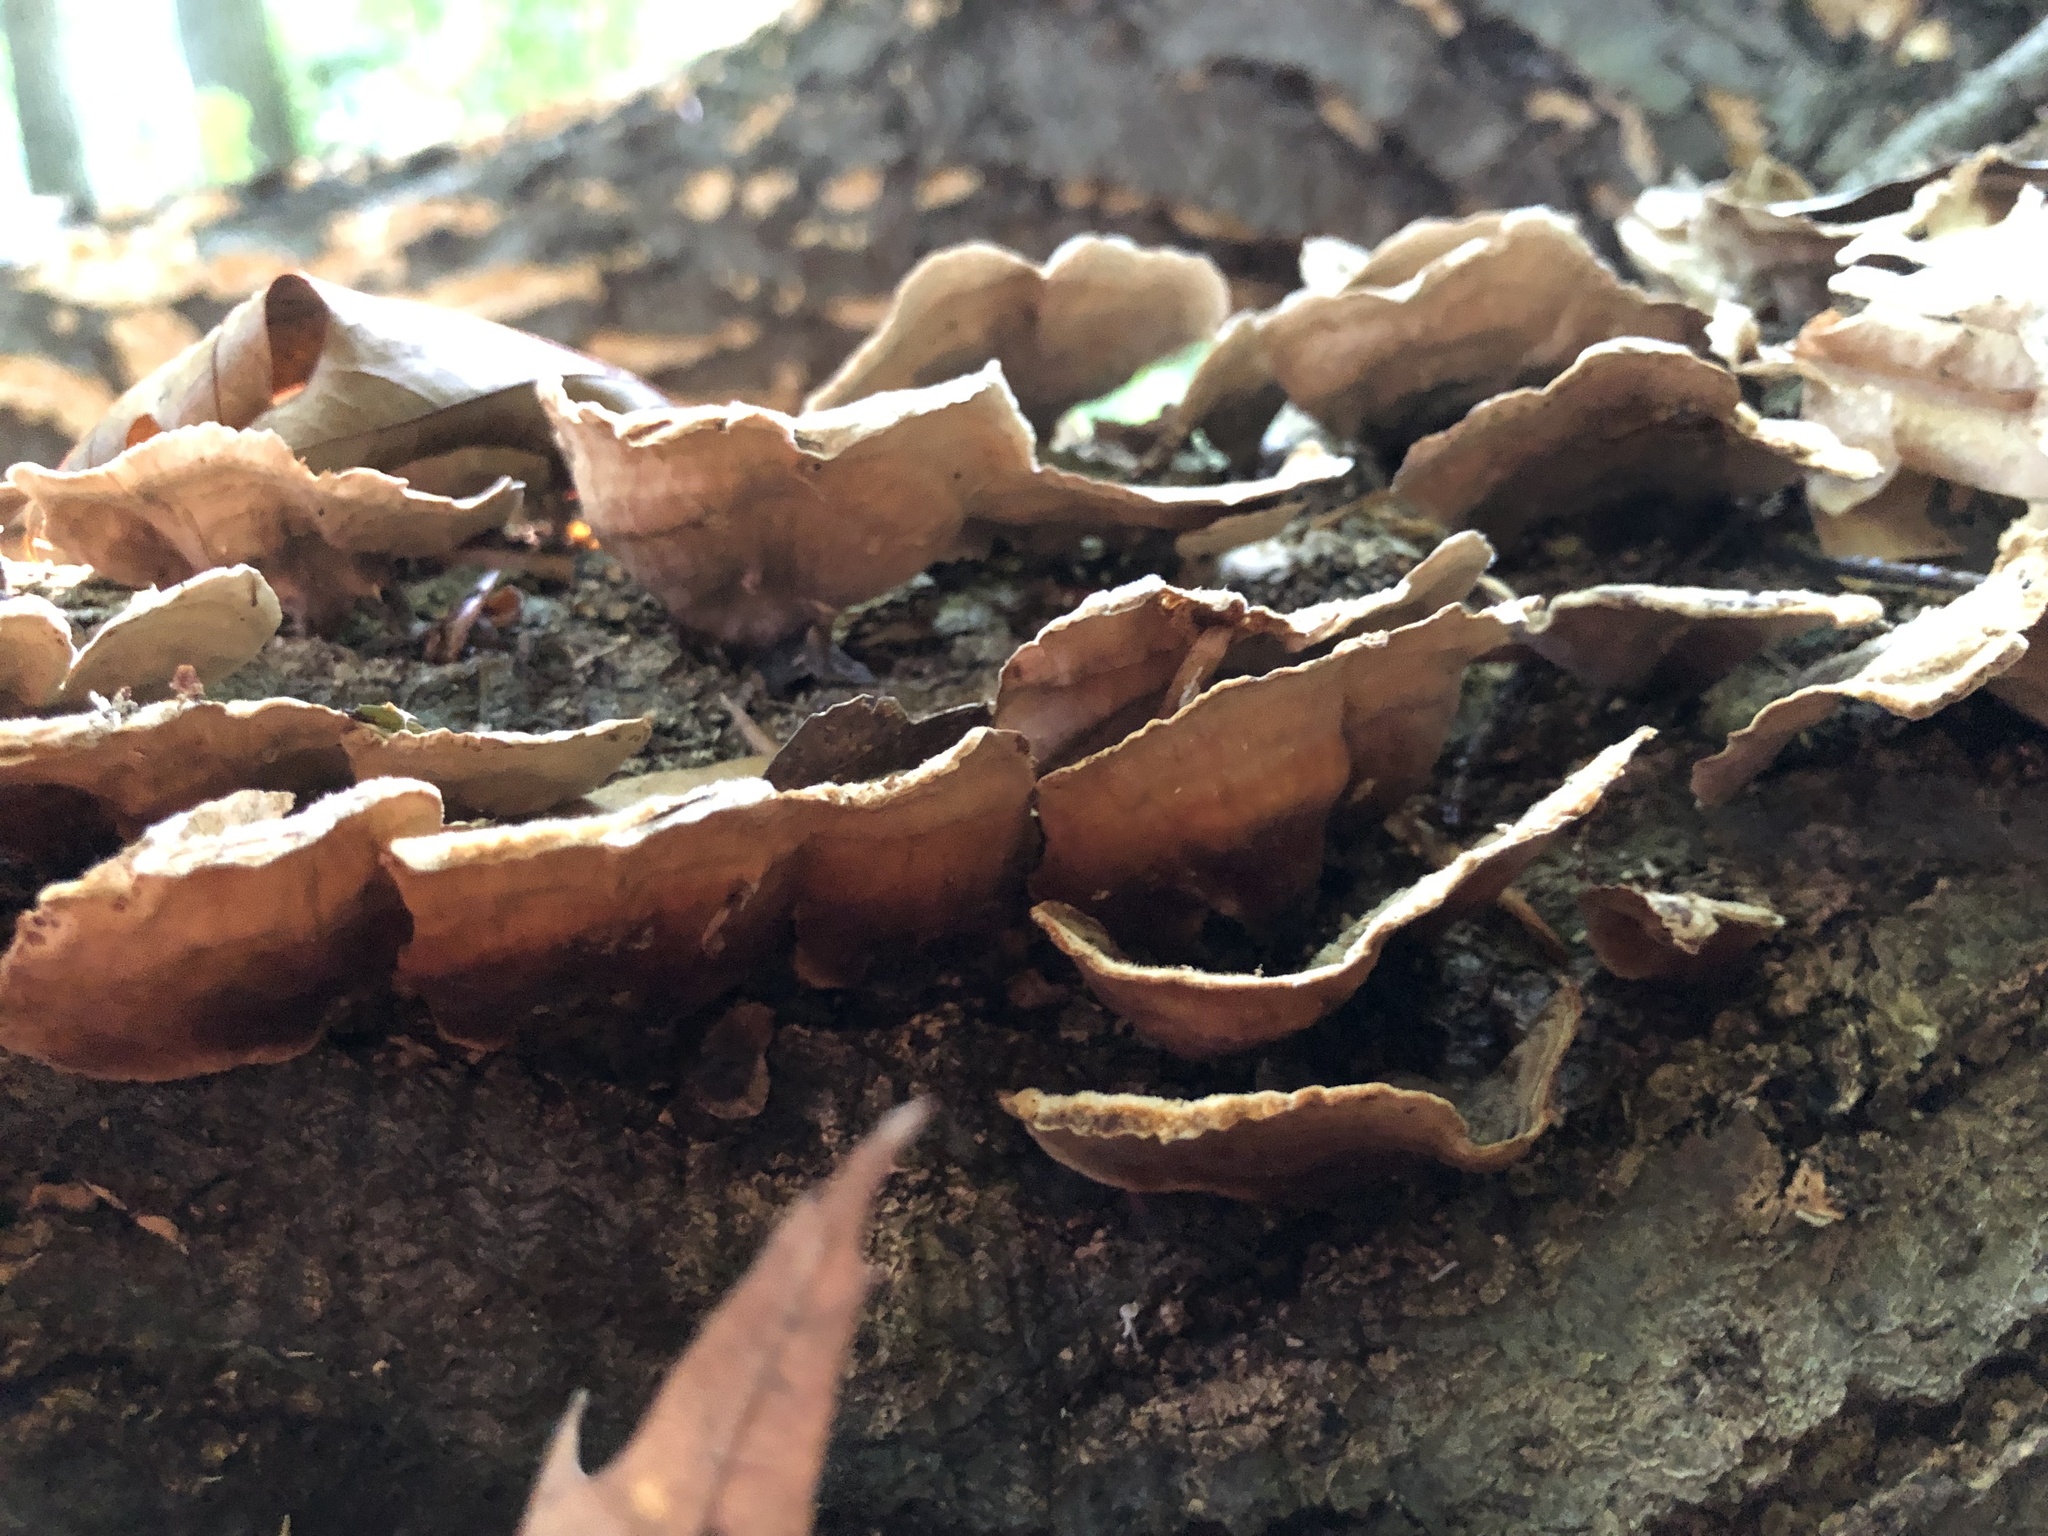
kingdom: Fungi
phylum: Basidiomycota
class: Agaricomycetes
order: Russulales
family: Stereaceae
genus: Stereum
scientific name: Stereum subtomentosum
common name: Yellowing curtain crust
